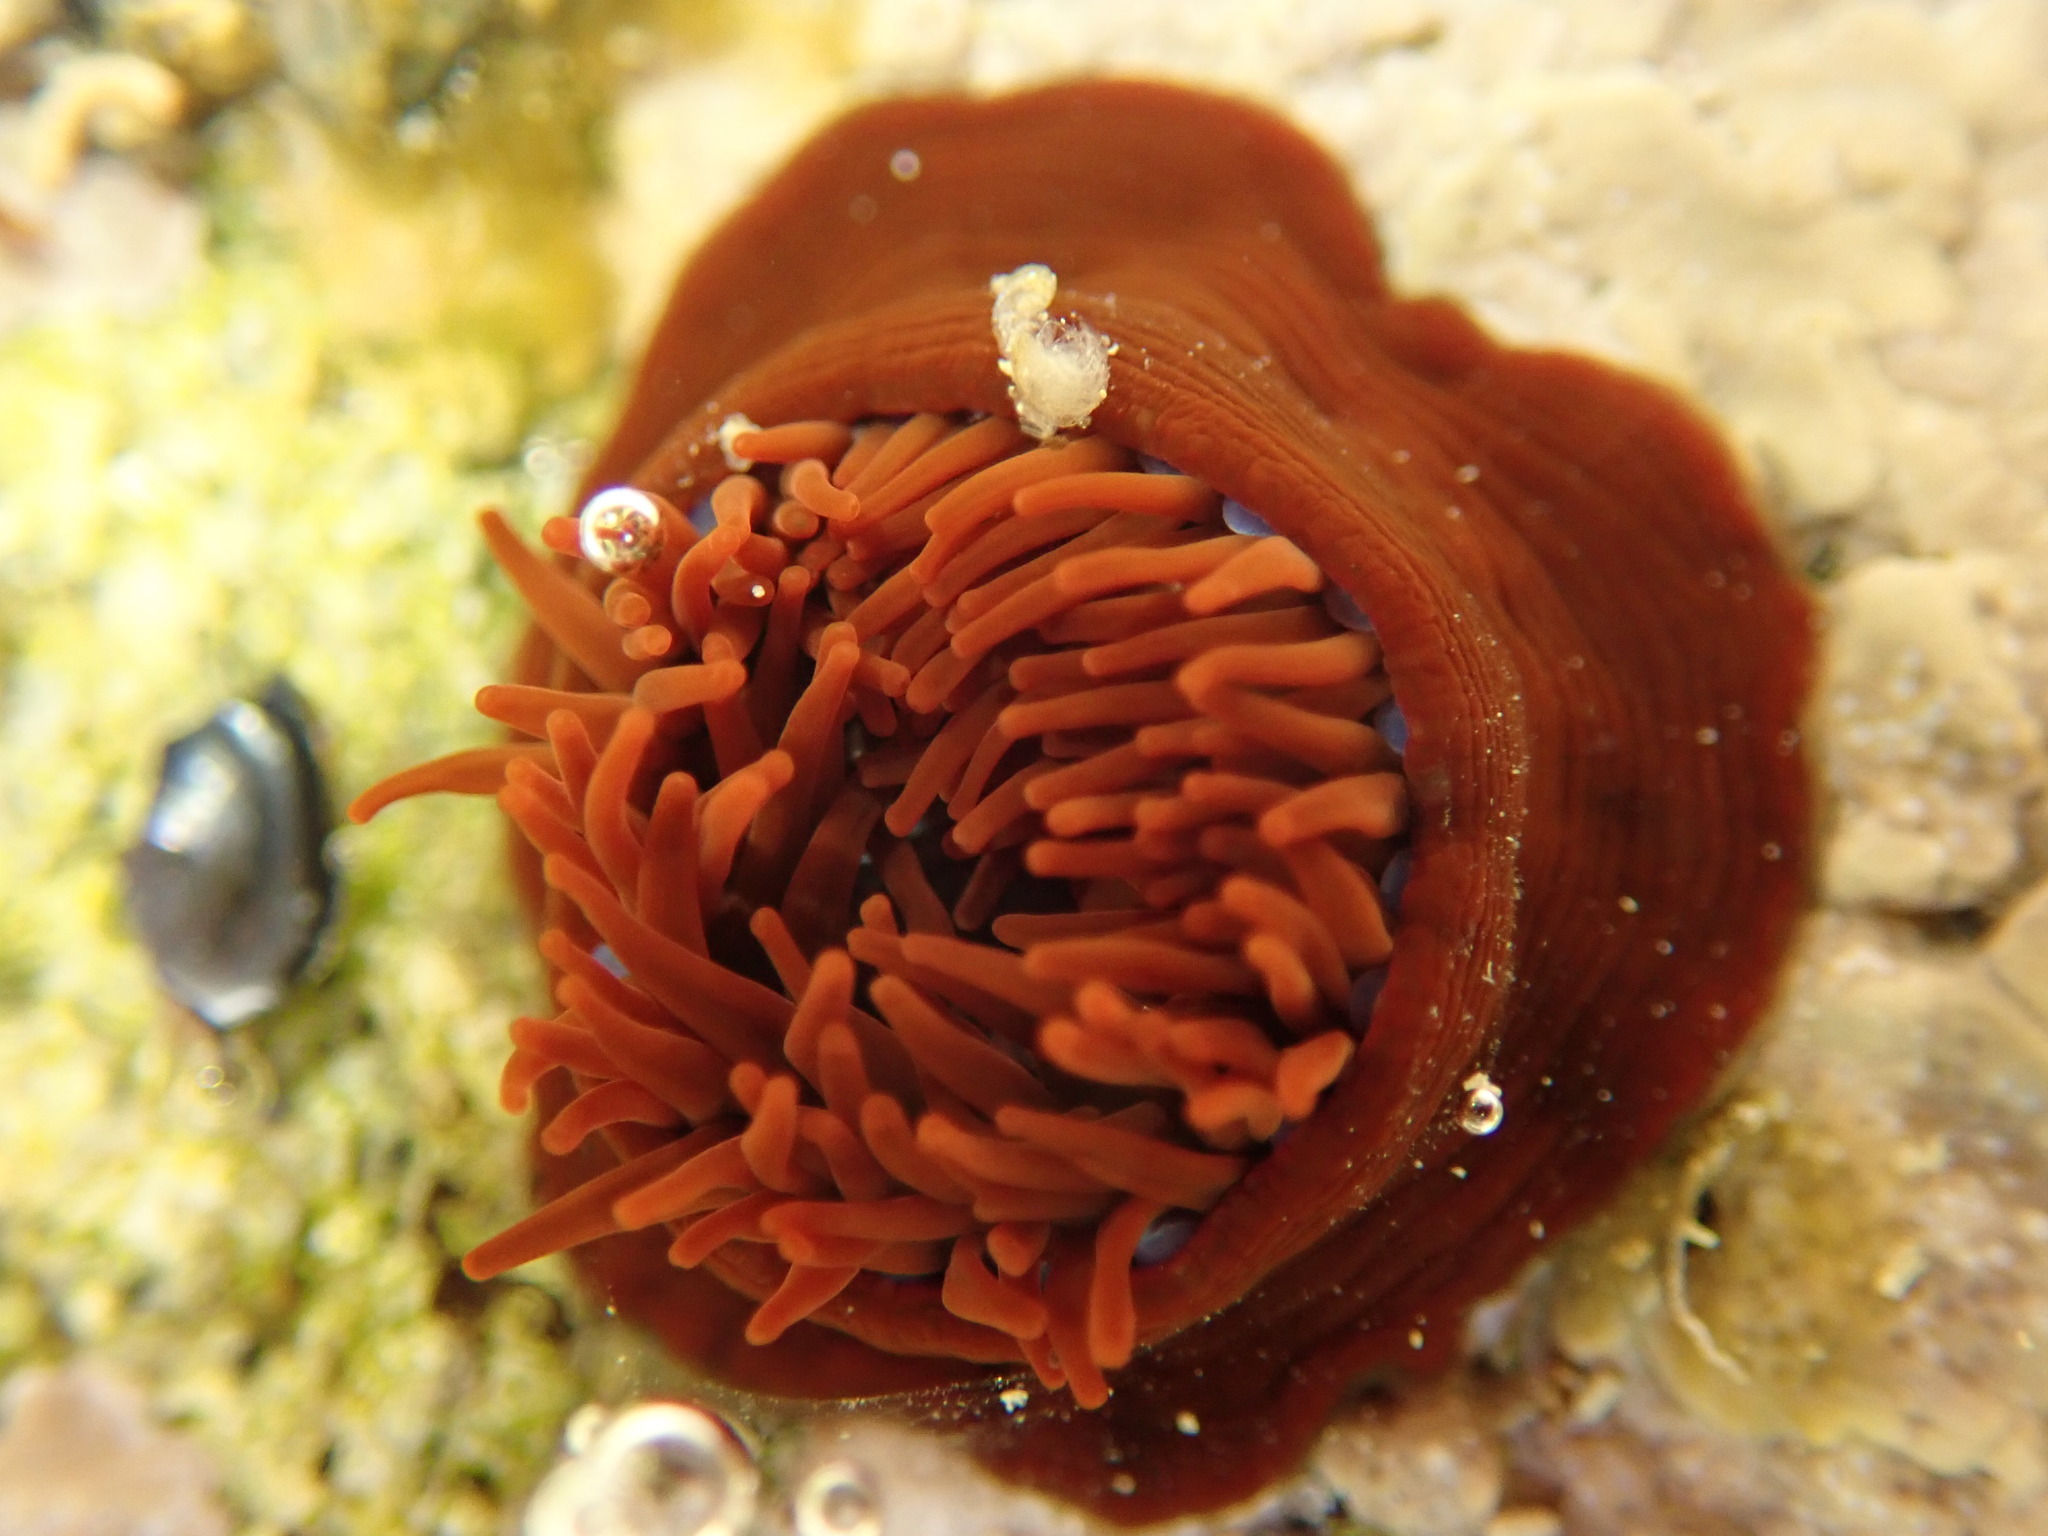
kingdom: Animalia
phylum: Cnidaria
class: Anthozoa
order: Actiniaria
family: Actiniidae
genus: Actinia
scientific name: Actinia equina
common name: Beadlet anemone
